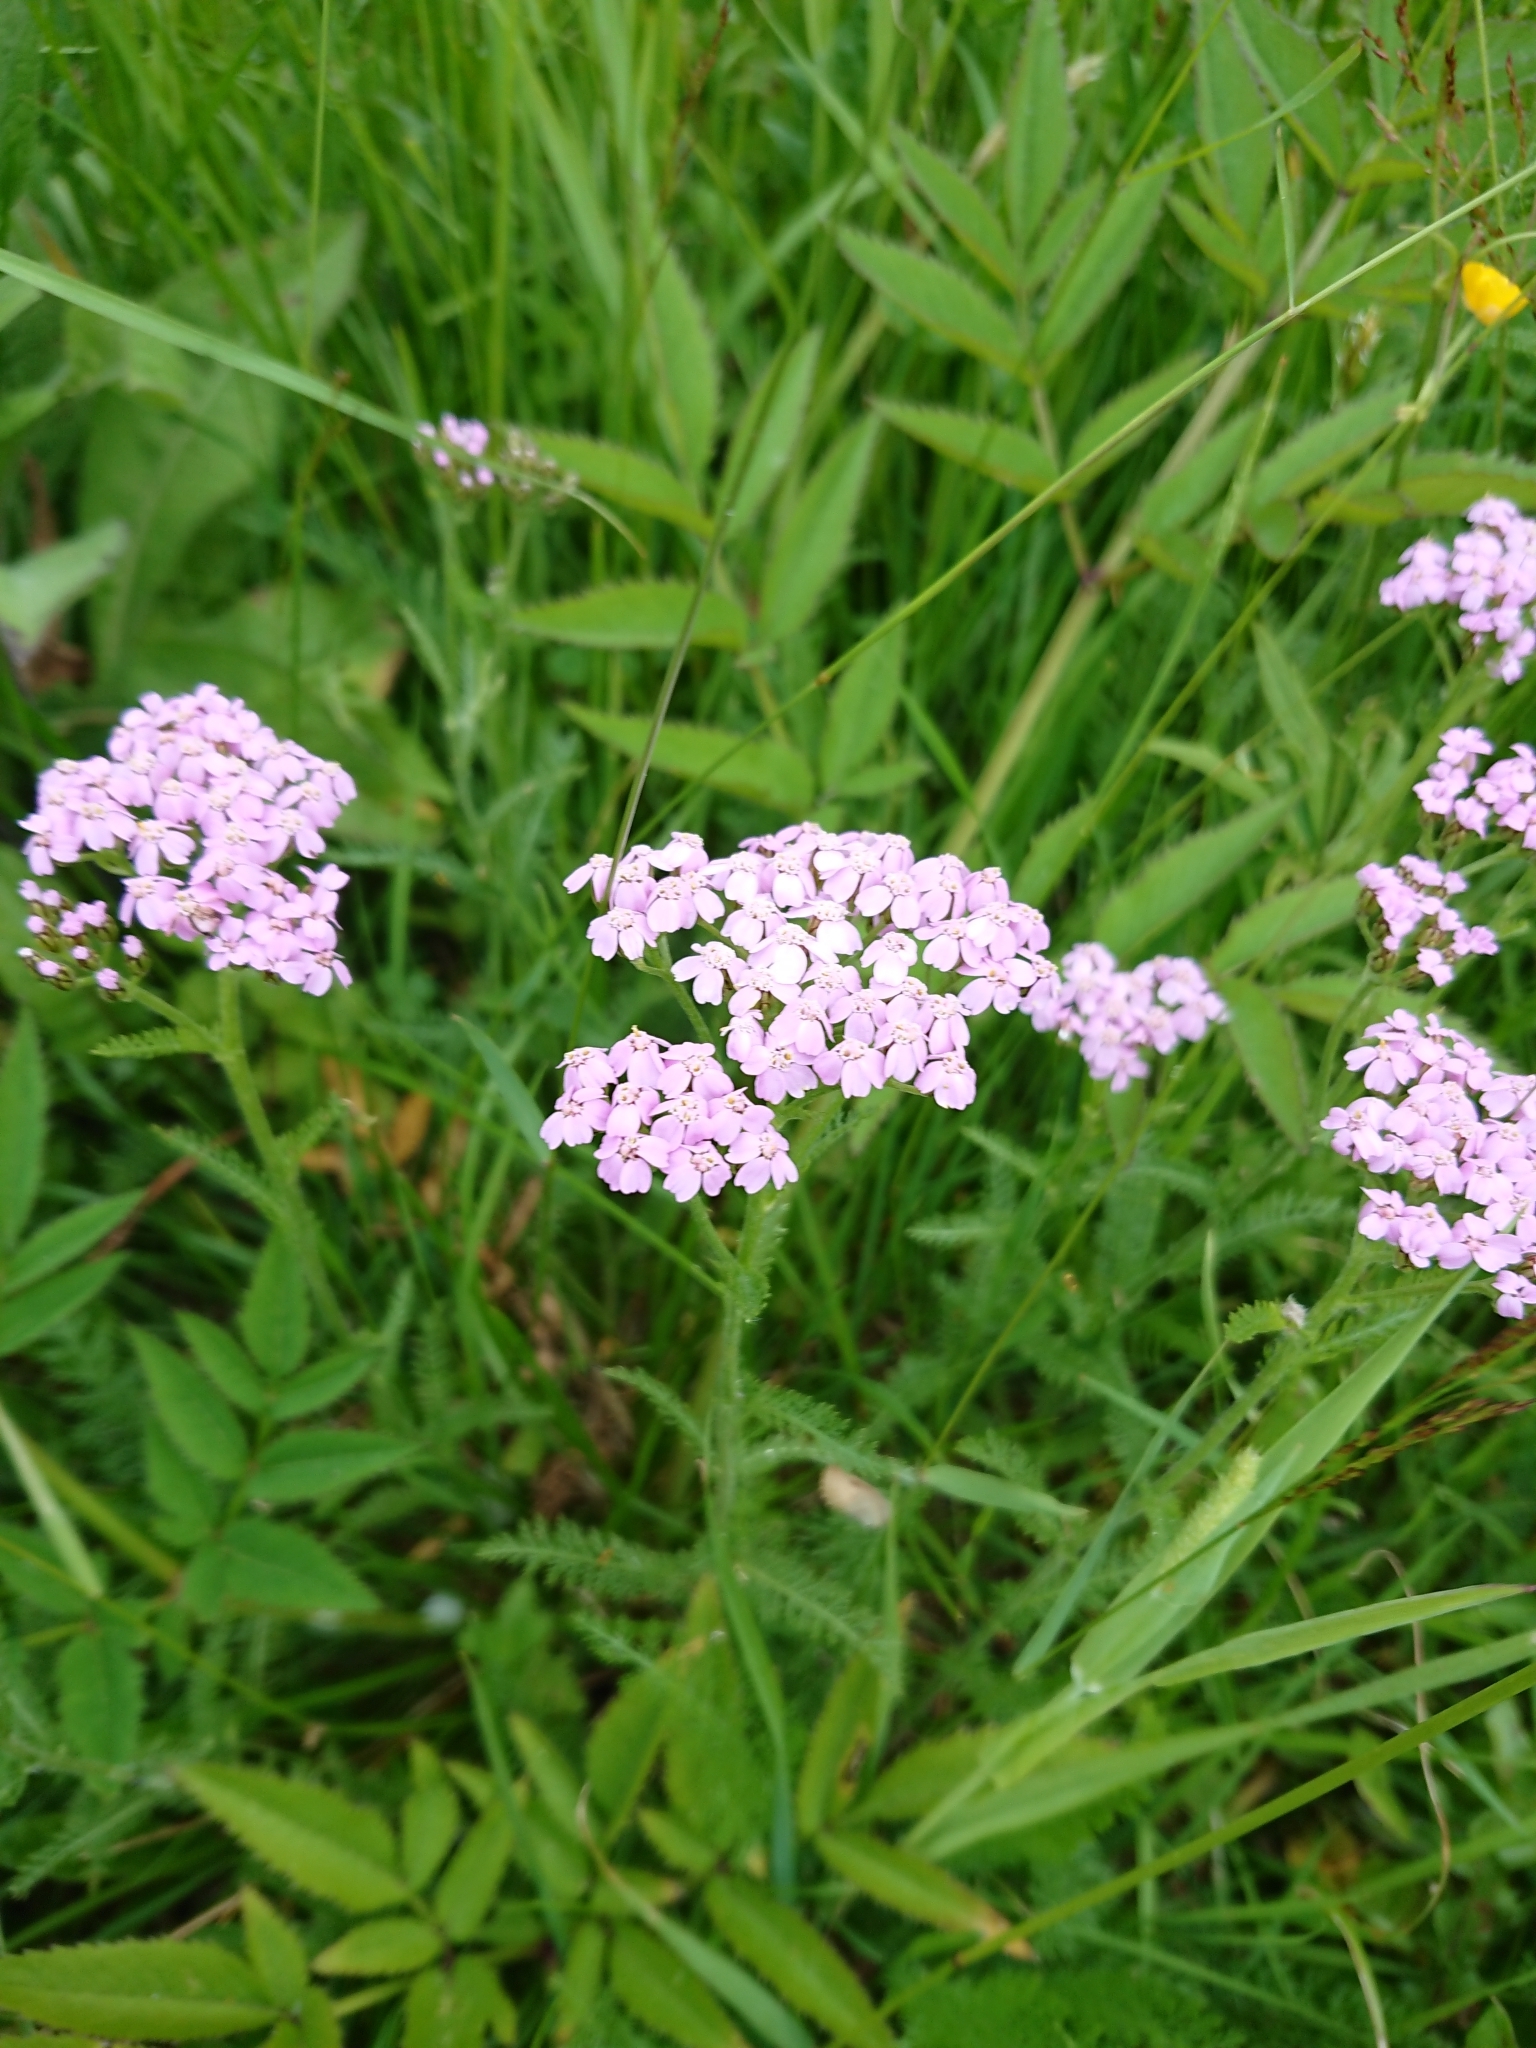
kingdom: Plantae
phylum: Tracheophyta
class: Magnoliopsida
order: Asterales
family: Asteraceae
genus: Achillea
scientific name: Achillea millefolium
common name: Yarrow
